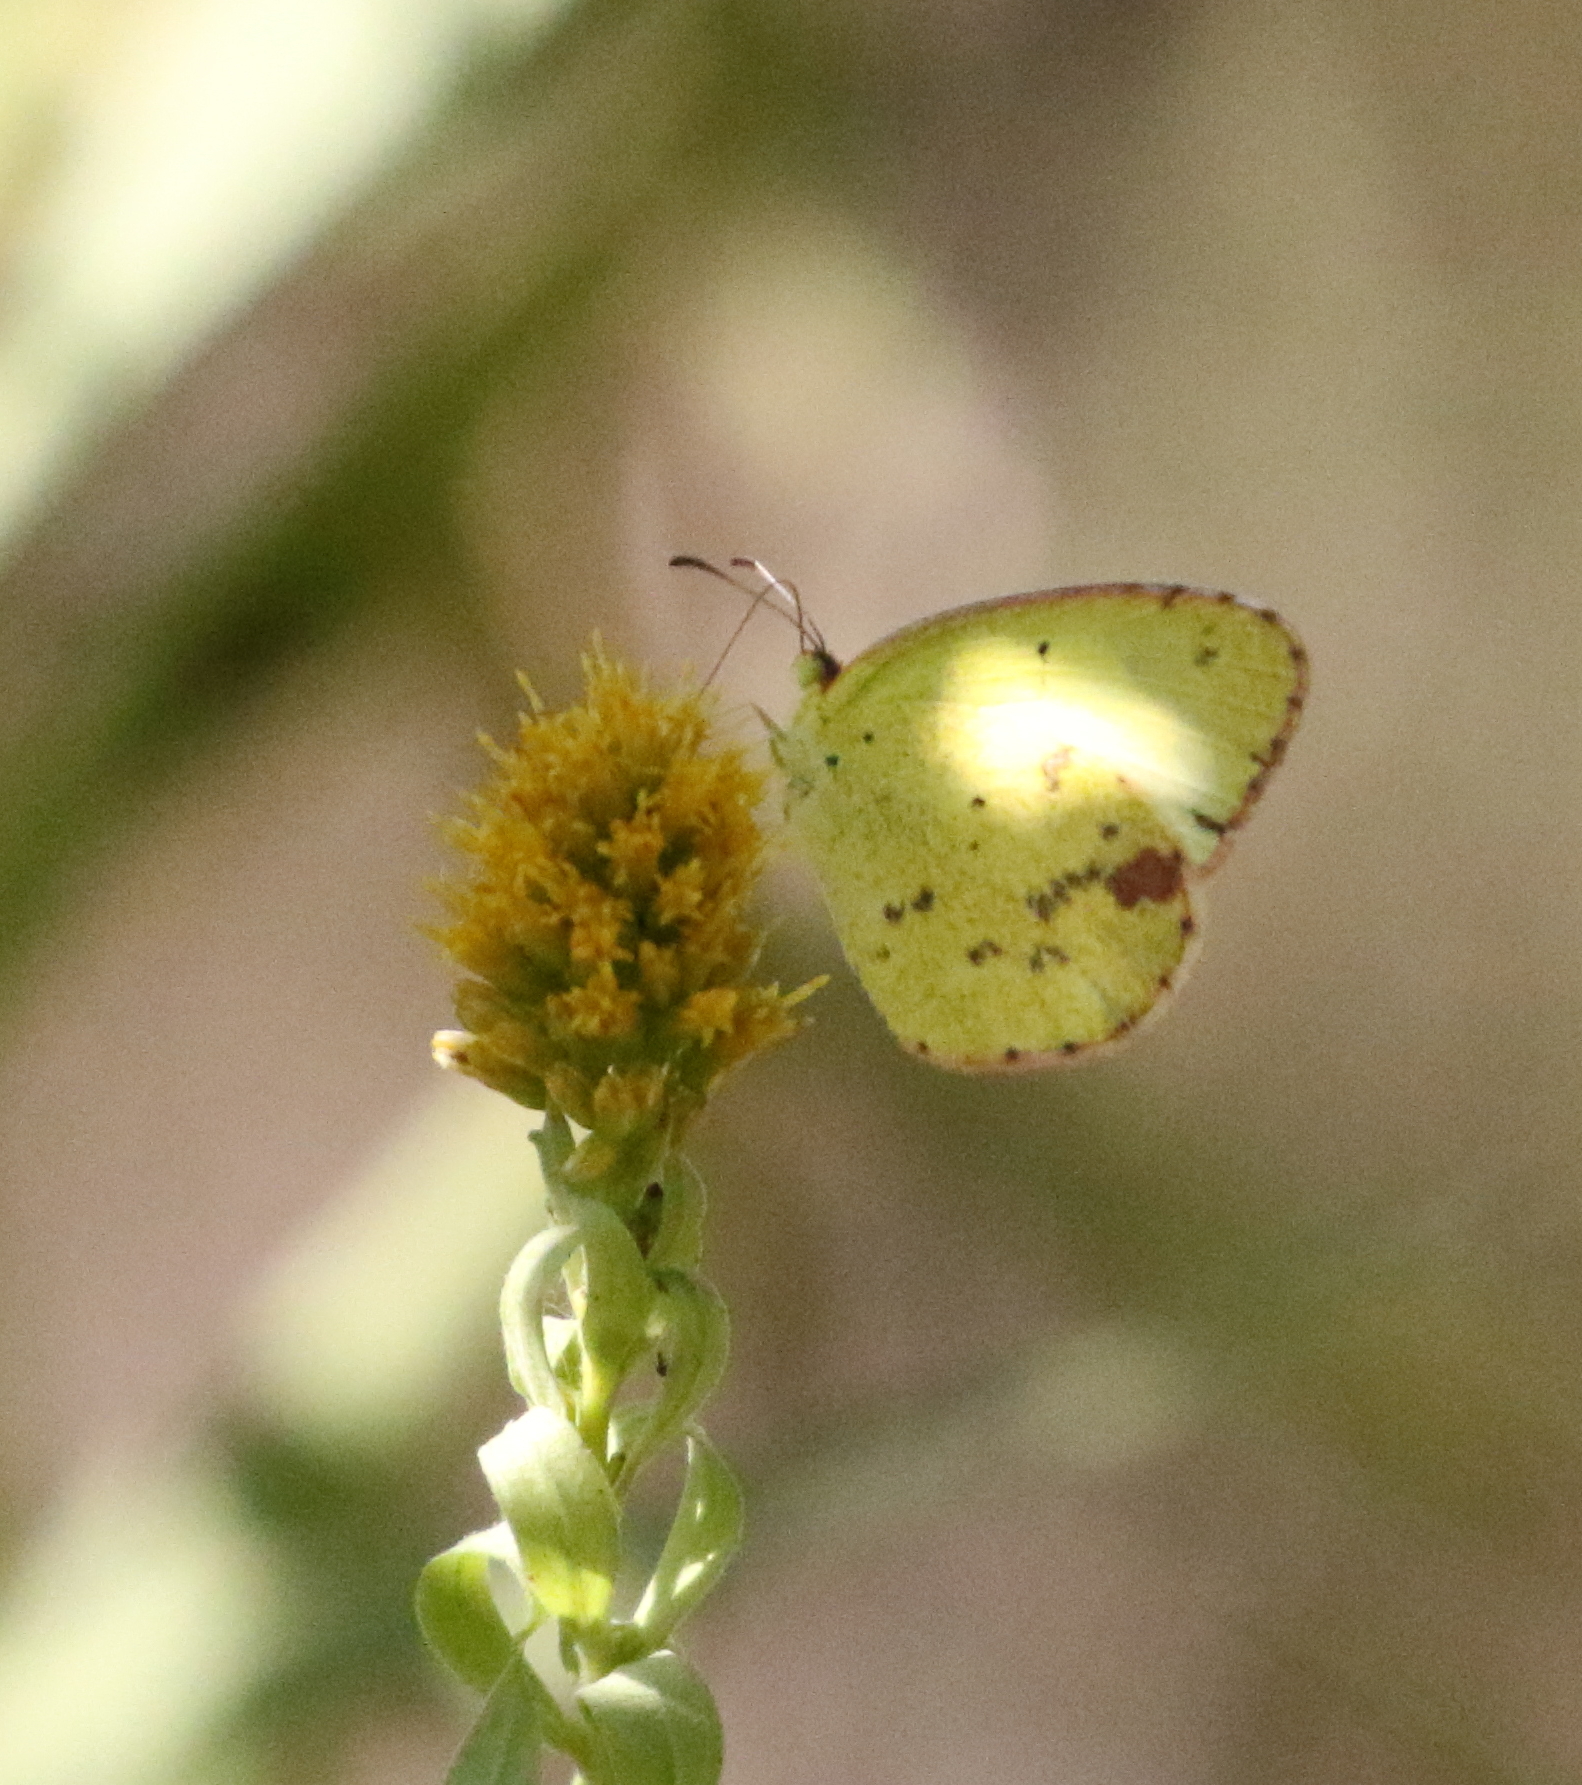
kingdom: Animalia
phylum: Arthropoda
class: Insecta
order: Lepidoptera
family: Pieridae
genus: Pyrisitia
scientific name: Pyrisitia lisa
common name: Little yellow
